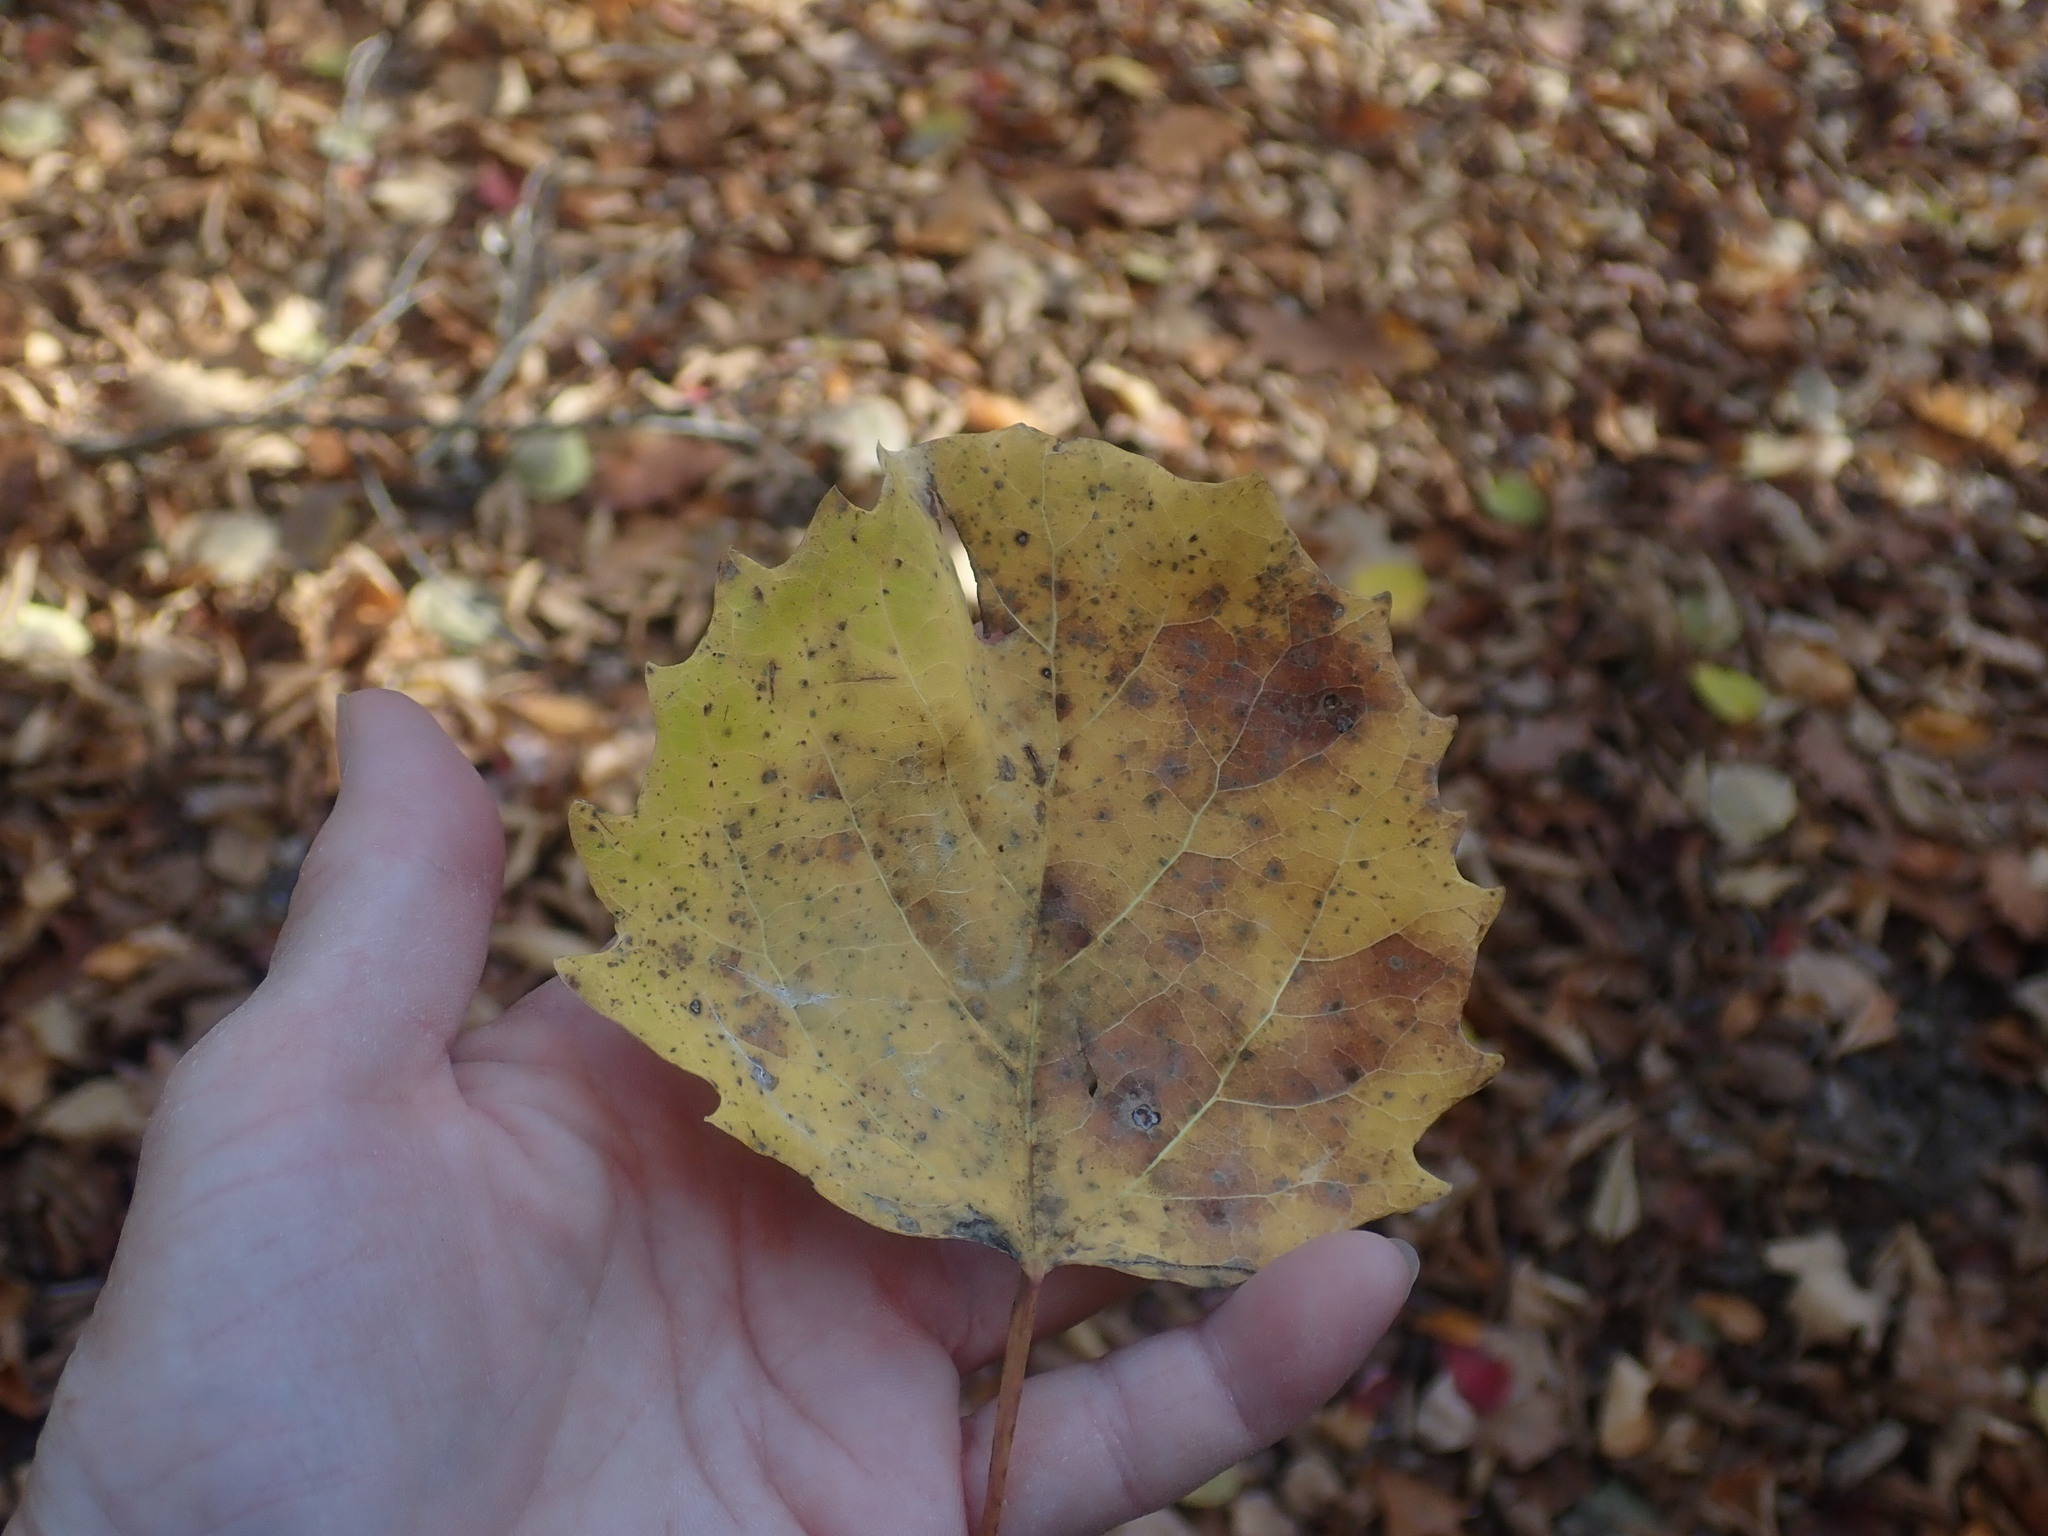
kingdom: Plantae
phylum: Tracheophyta
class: Magnoliopsida
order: Malpighiales
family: Salicaceae
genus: Populus
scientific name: Populus grandidentata
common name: Bigtooth aspen
